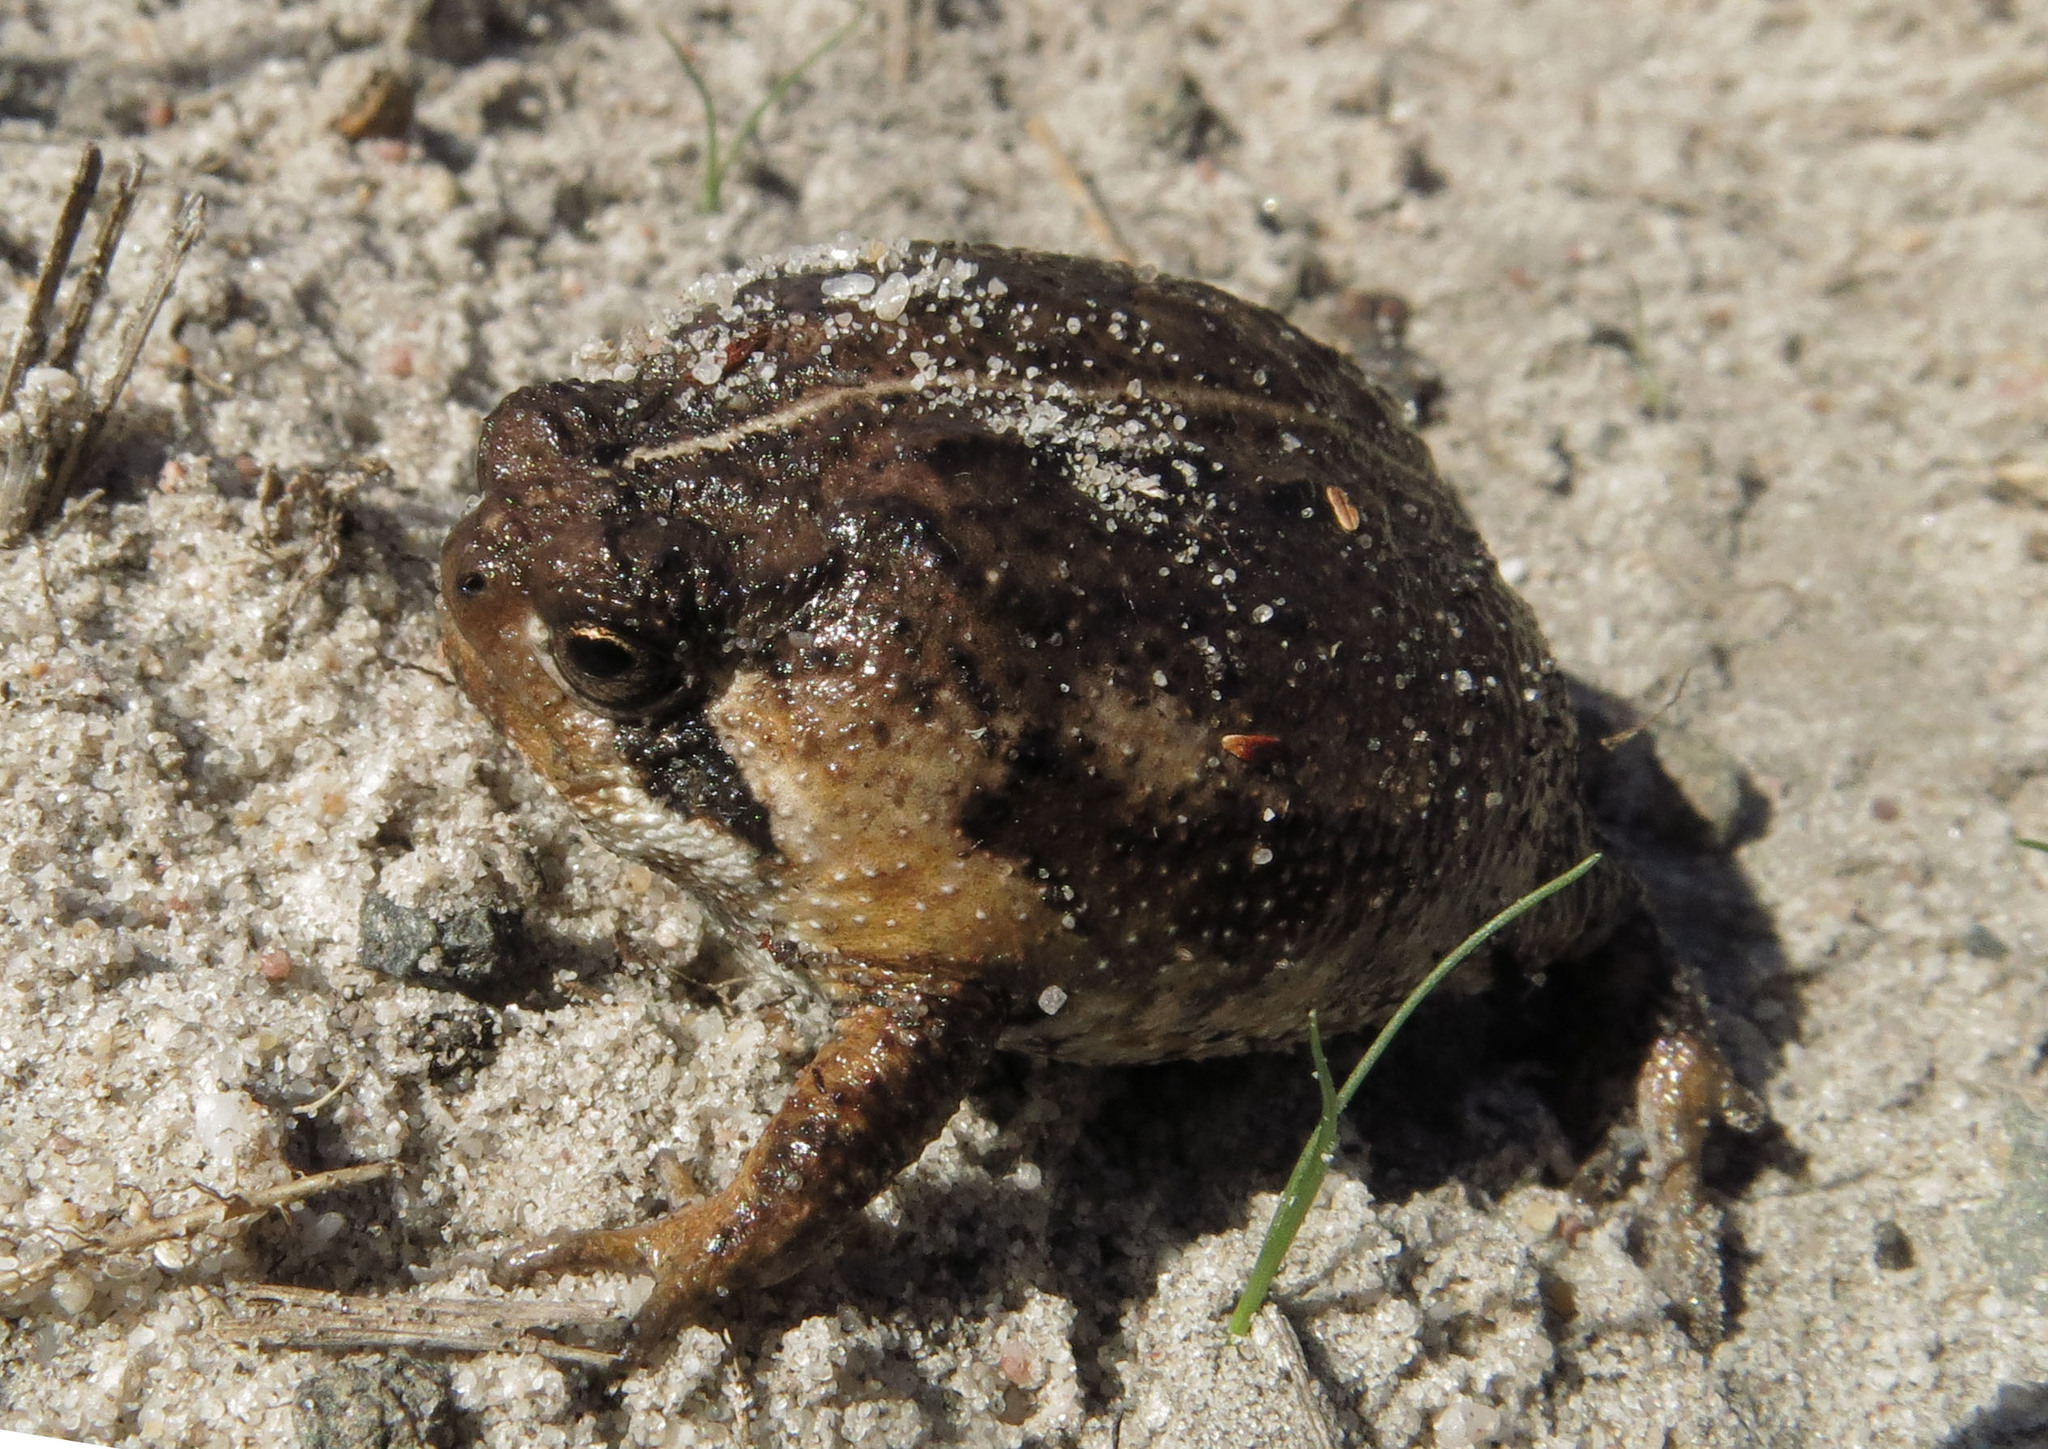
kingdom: Animalia
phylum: Chordata
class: Amphibia
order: Anura
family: Brevicipitidae
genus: Breviceps
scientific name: Breviceps rosei
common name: Rose's short-headed frog
